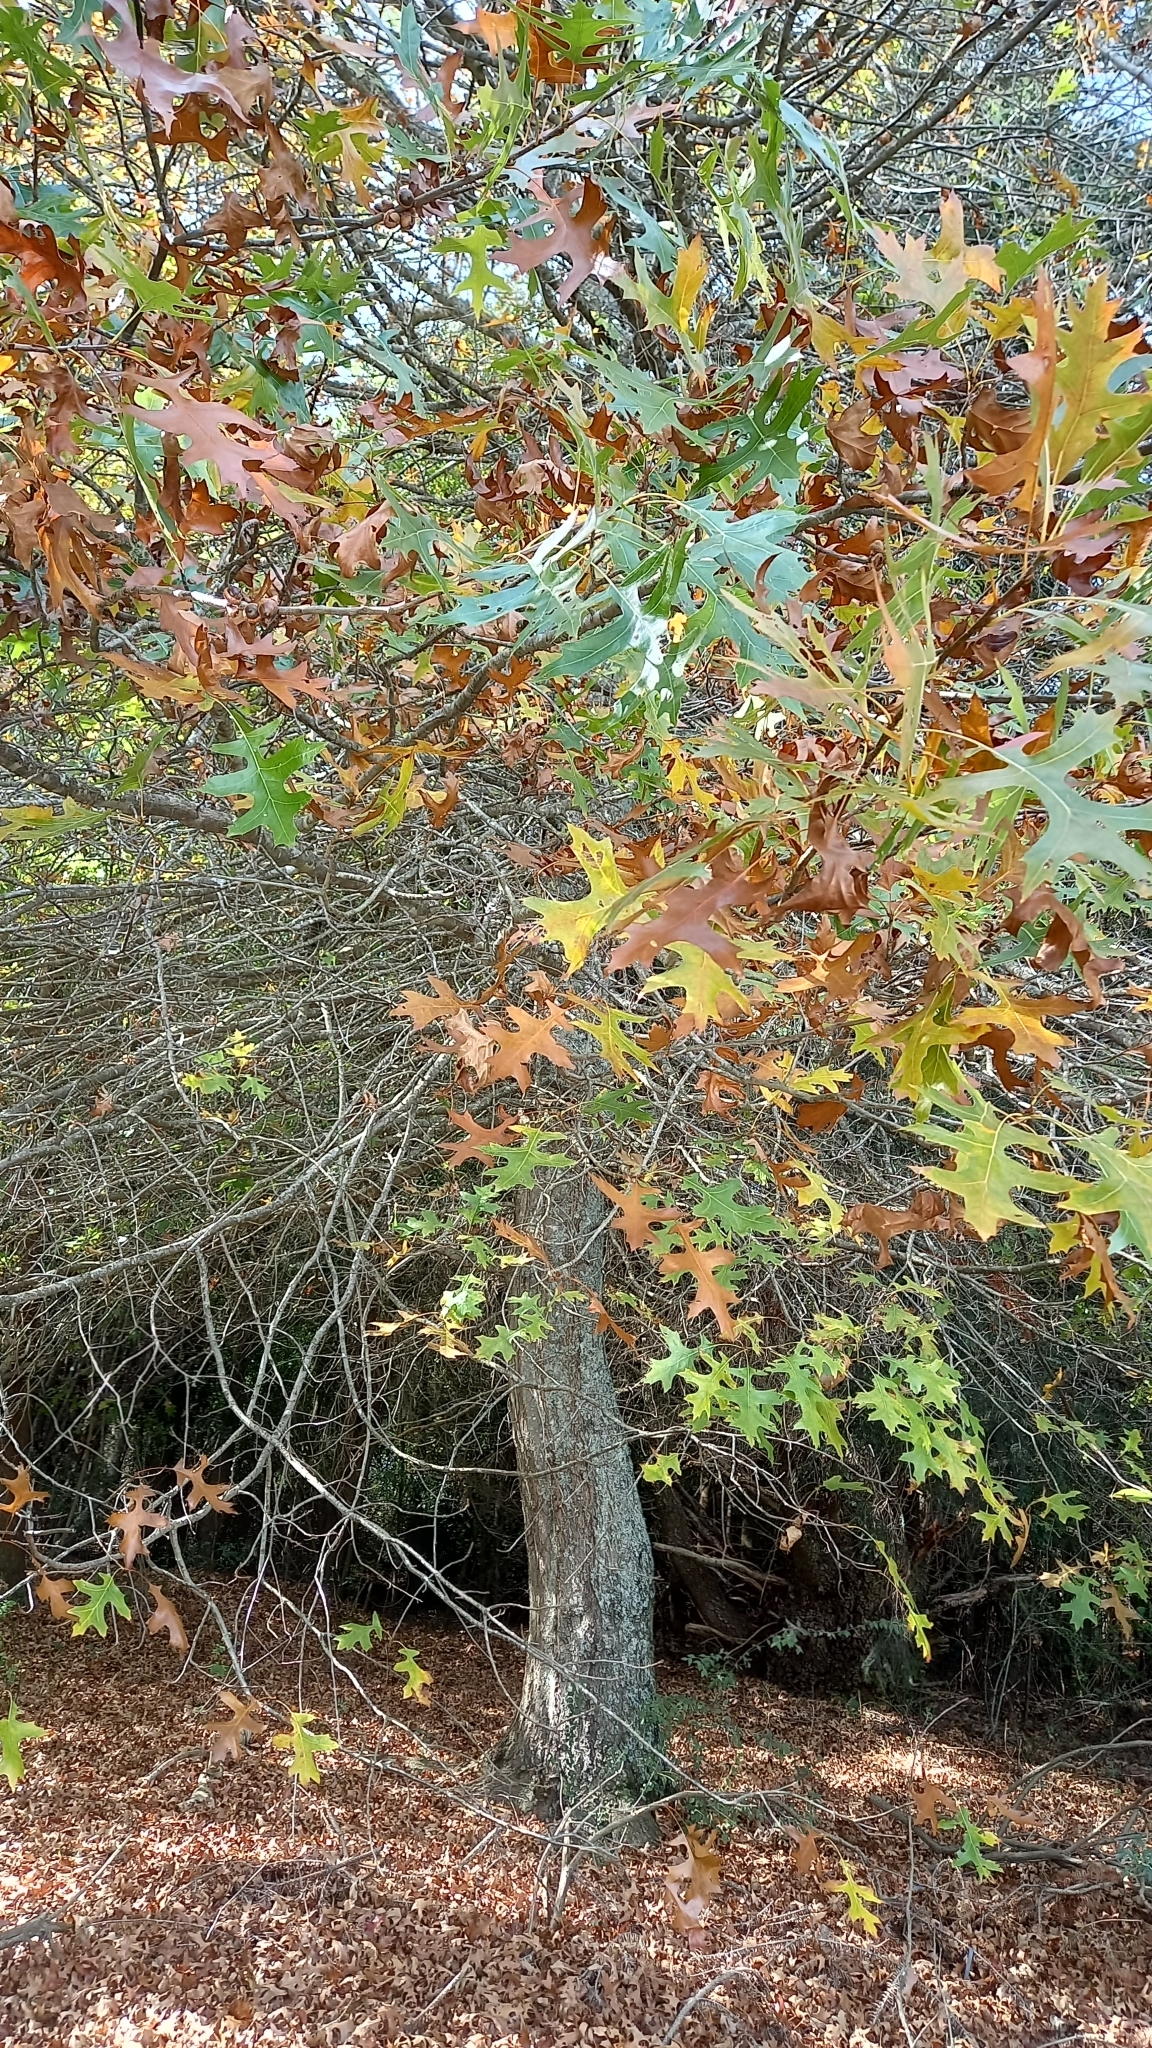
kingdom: Plantae
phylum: Tracheophyta
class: Magnoliopsida
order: Fagales
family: Fagaceae
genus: Quercus
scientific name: Quercus palustris
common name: Pin oak
